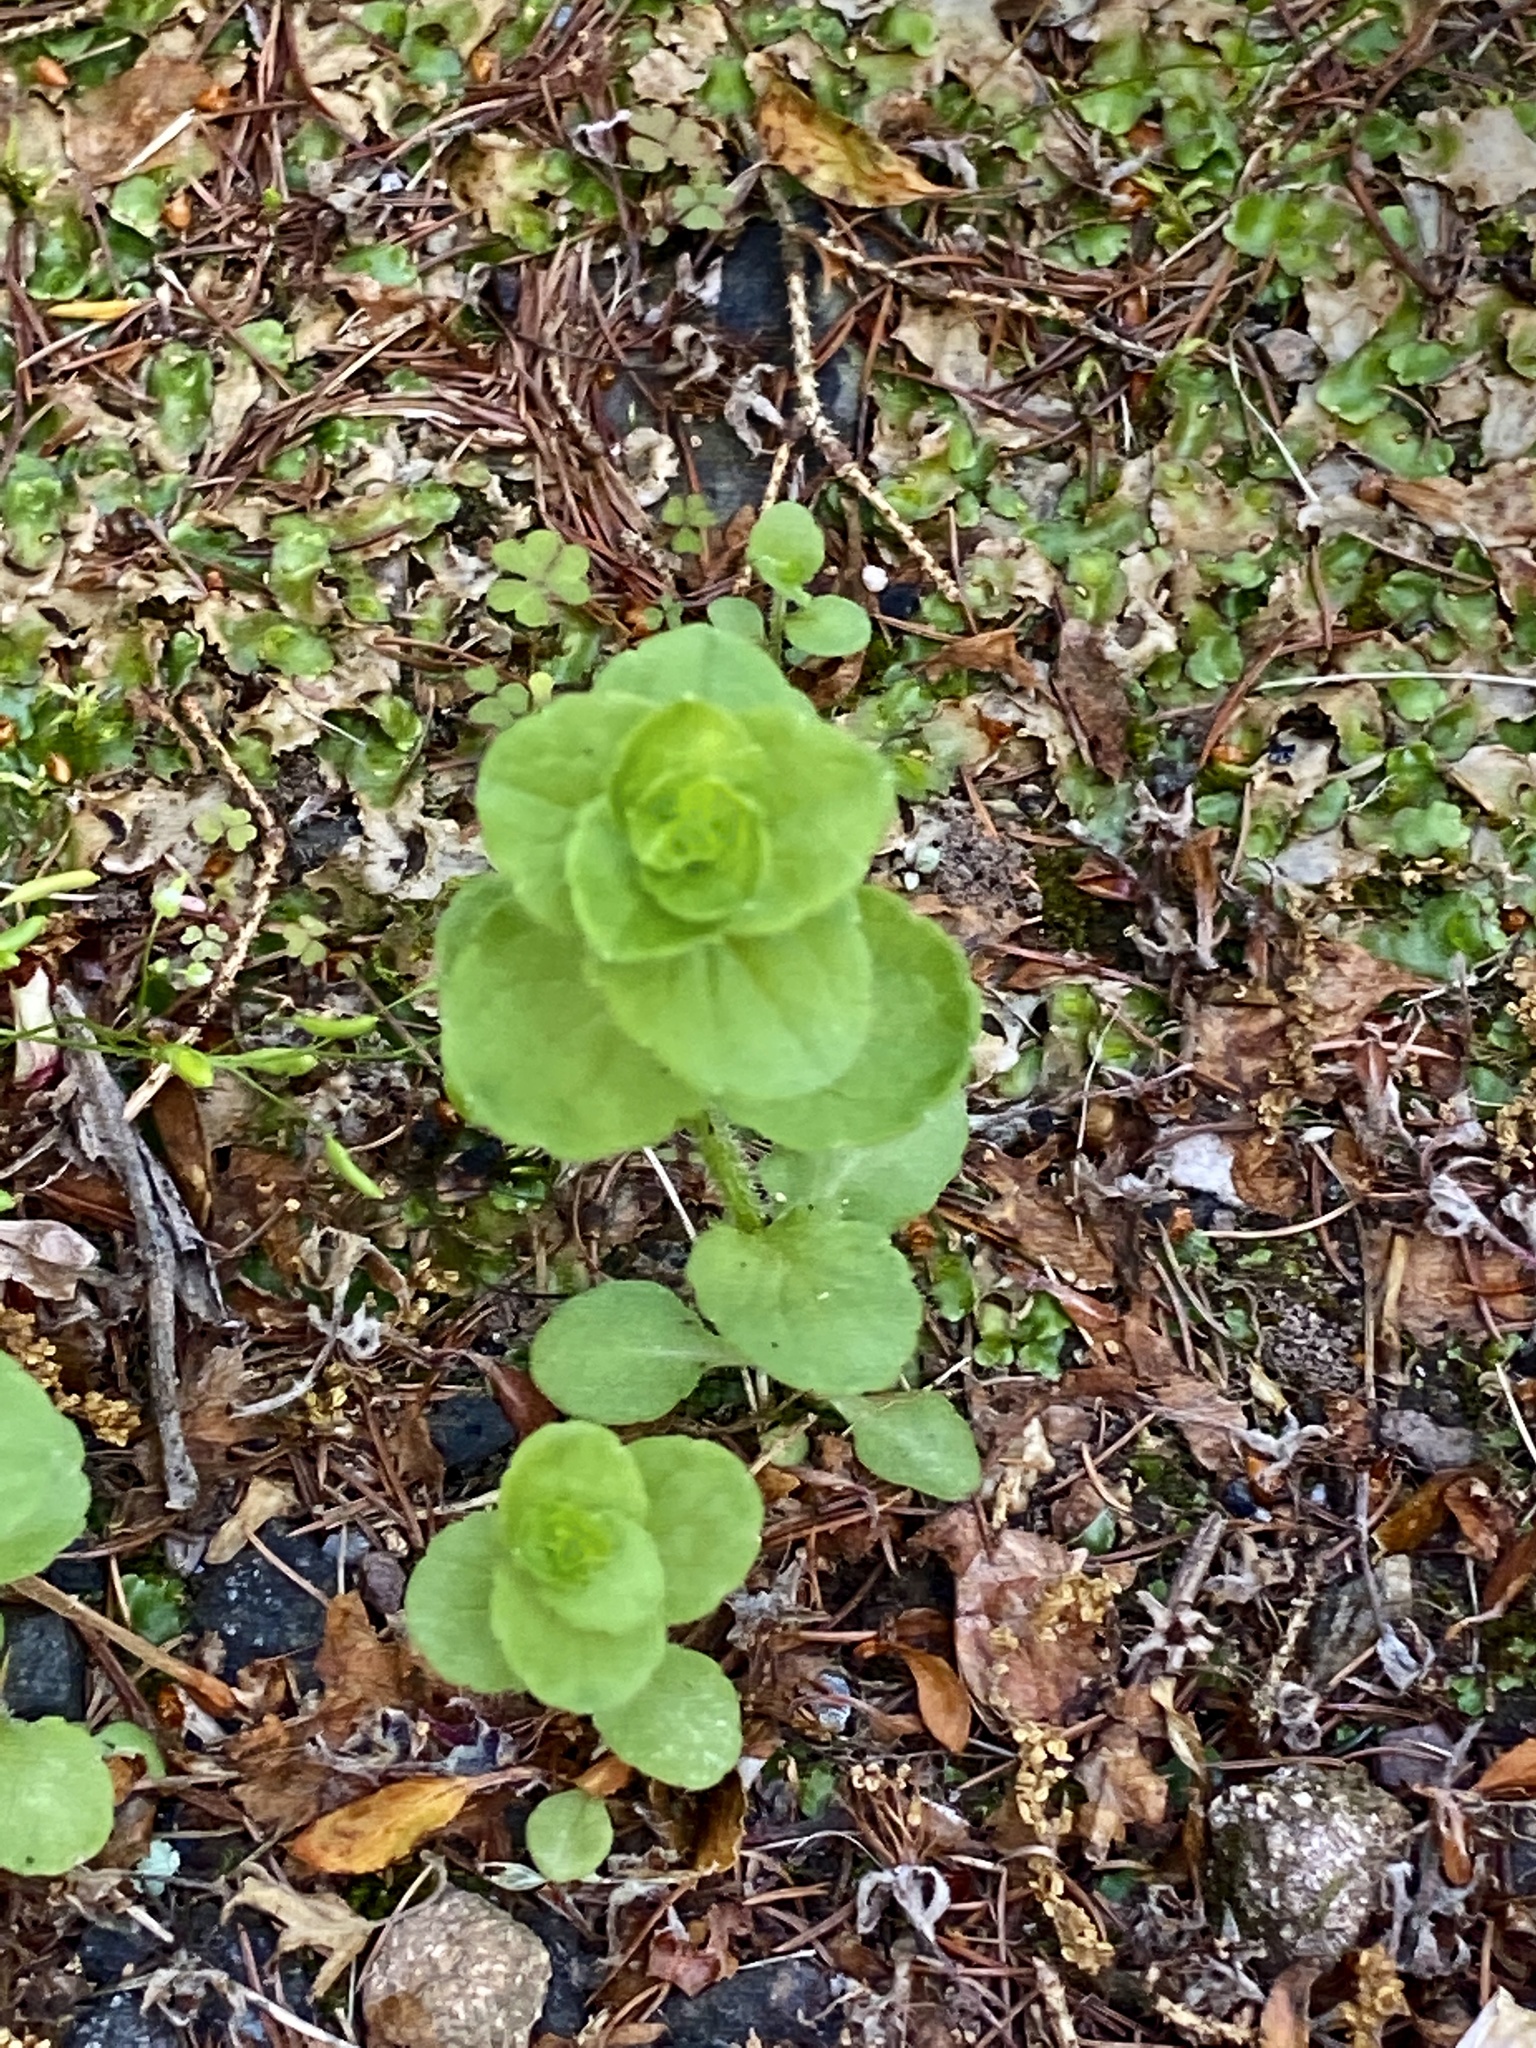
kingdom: Plantae
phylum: Tracheophyta
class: Magnoliopsida
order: Asterales
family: Campanulaceae
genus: Triodanis
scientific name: Triodanis perfoliata
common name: Clasping venus' looking-glass
